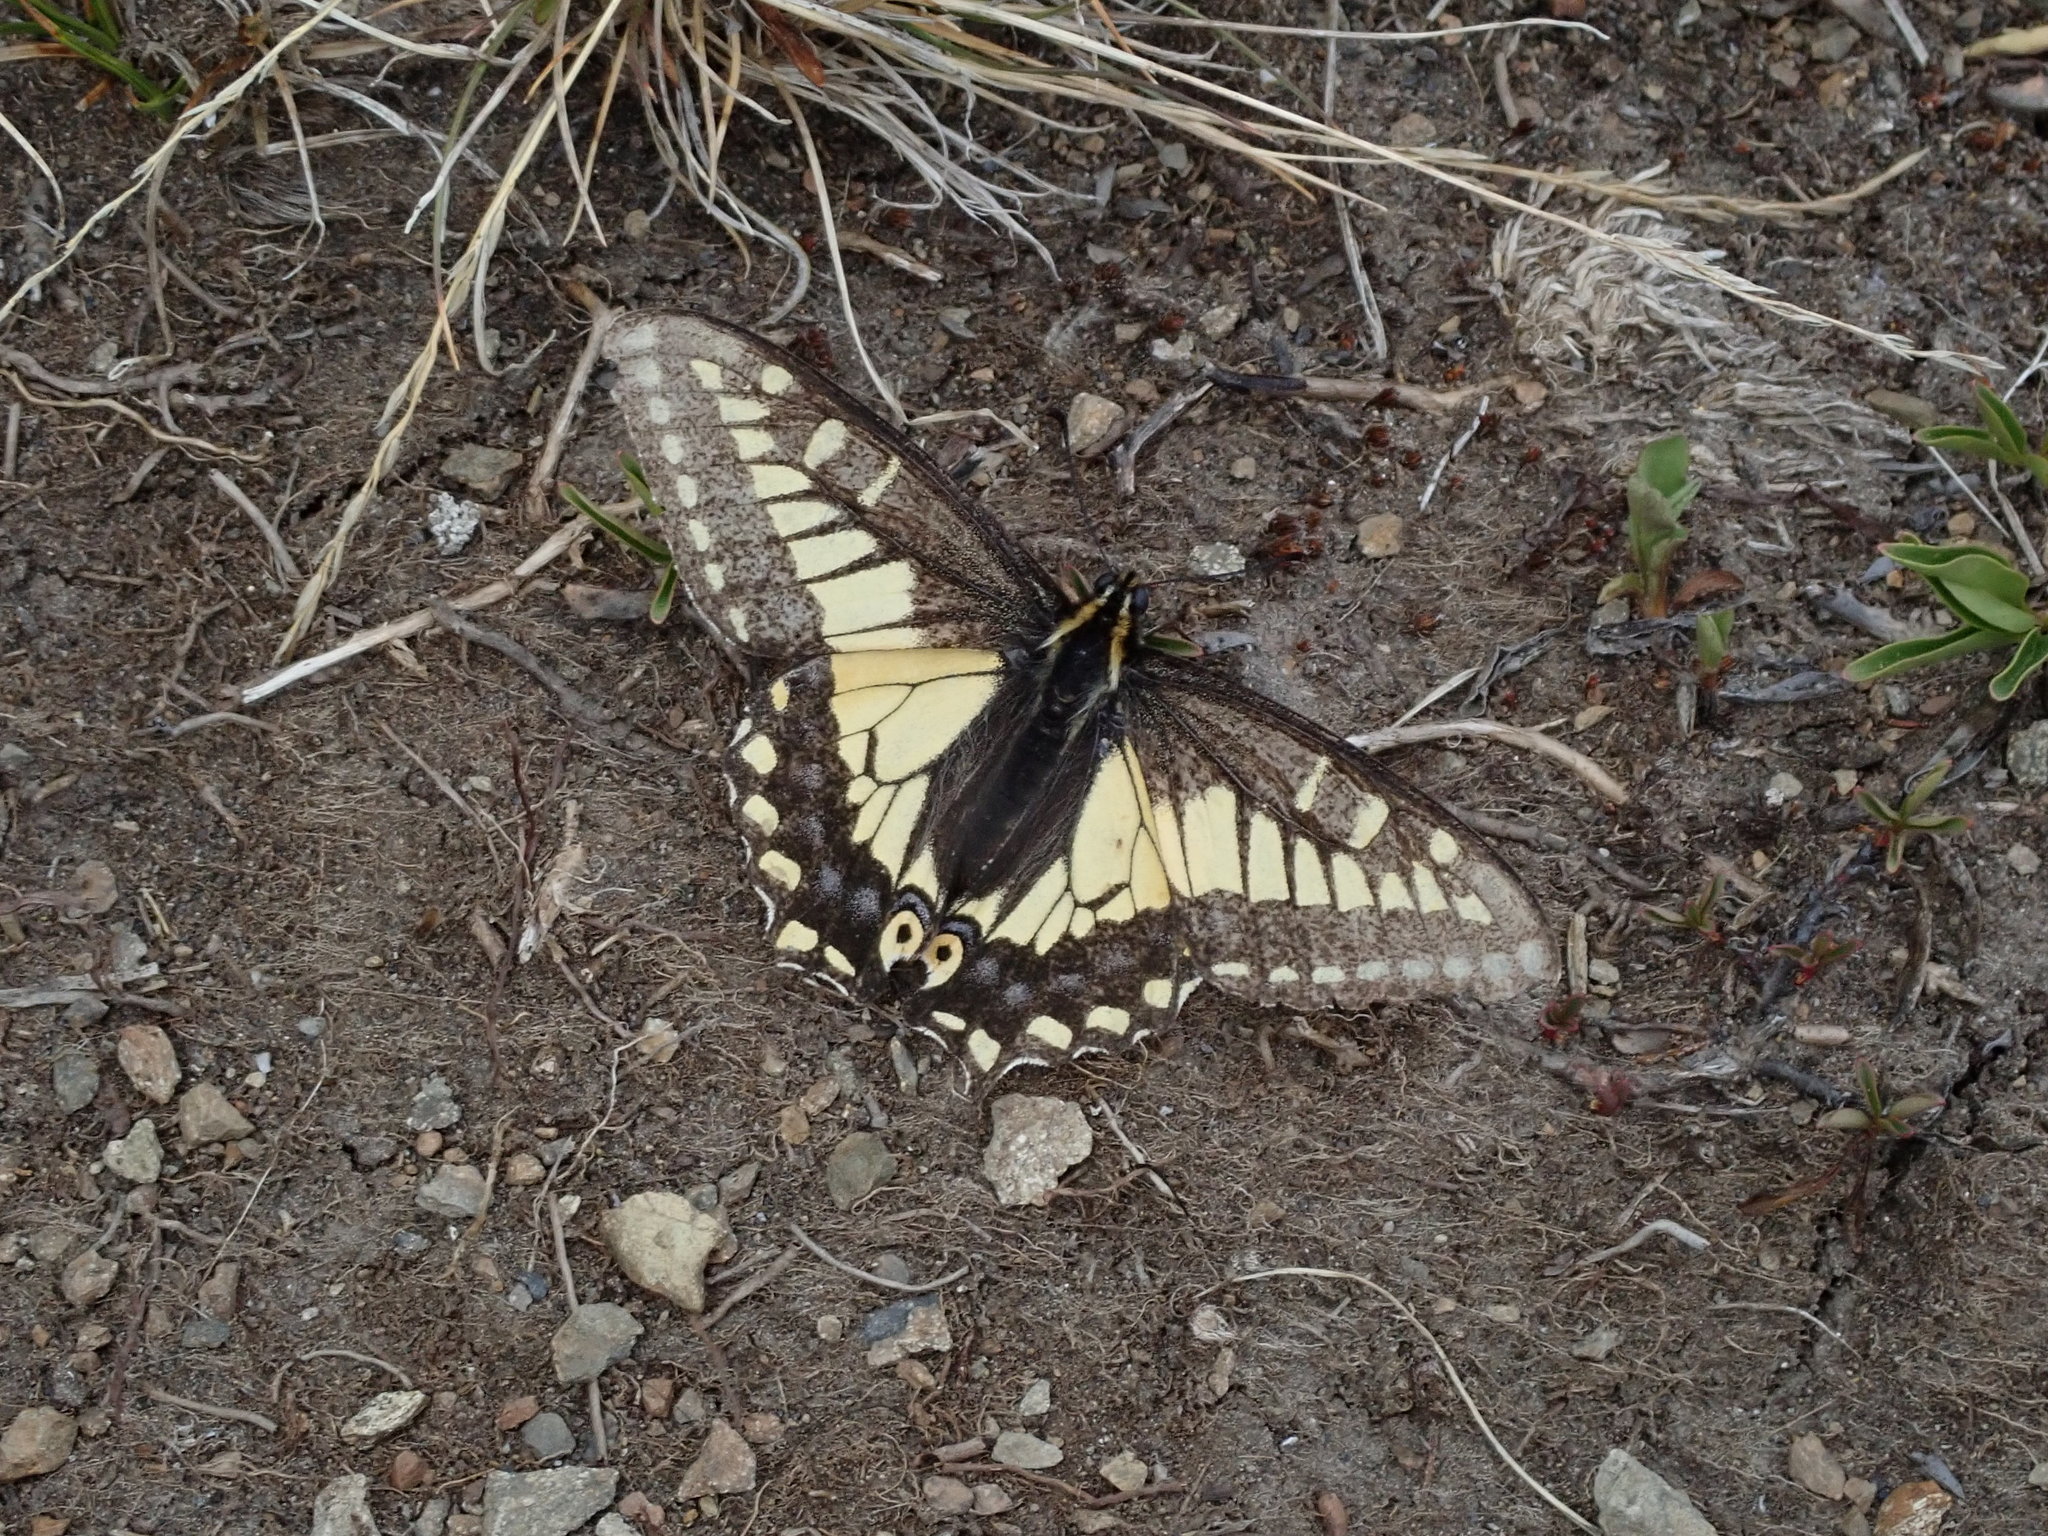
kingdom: Animalia
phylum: Arthropoda
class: Insecta
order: Lepidoptera
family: Papilionidae
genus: Papilio
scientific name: Papilio zelicaon
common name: Anise swallowtail
